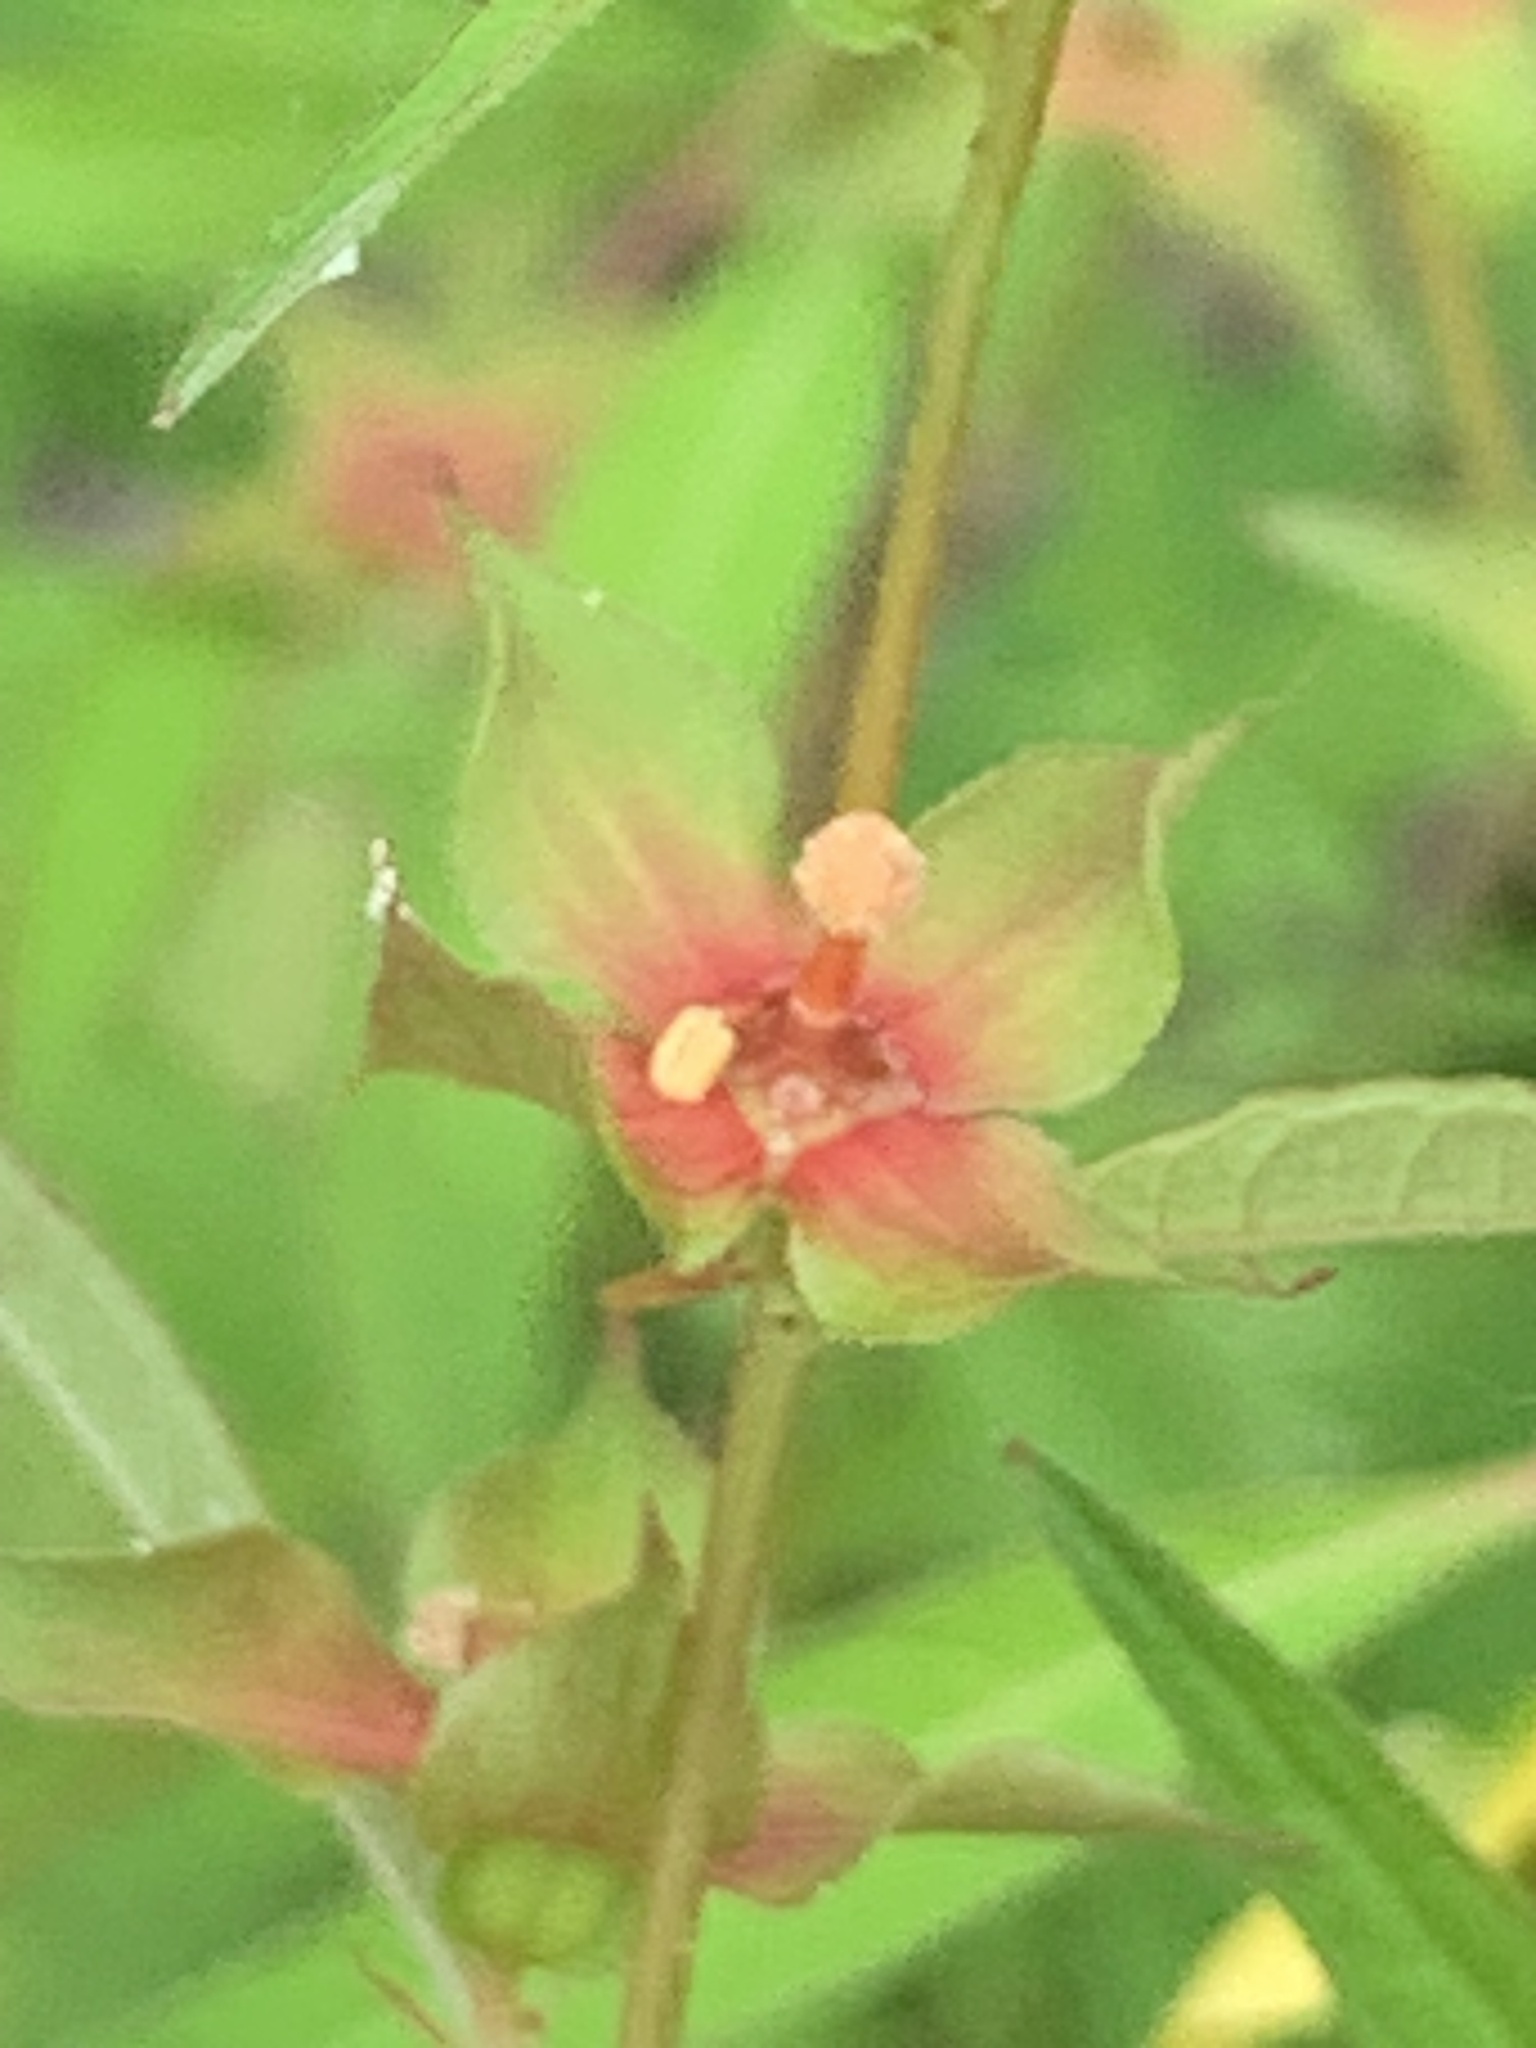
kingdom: Plantae
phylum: Tracheophyta
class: Magnoliopsida
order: Myrtales
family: Onagraceae
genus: Ludwigia
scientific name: Ludwigia alternifolia
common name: Rattlebox
